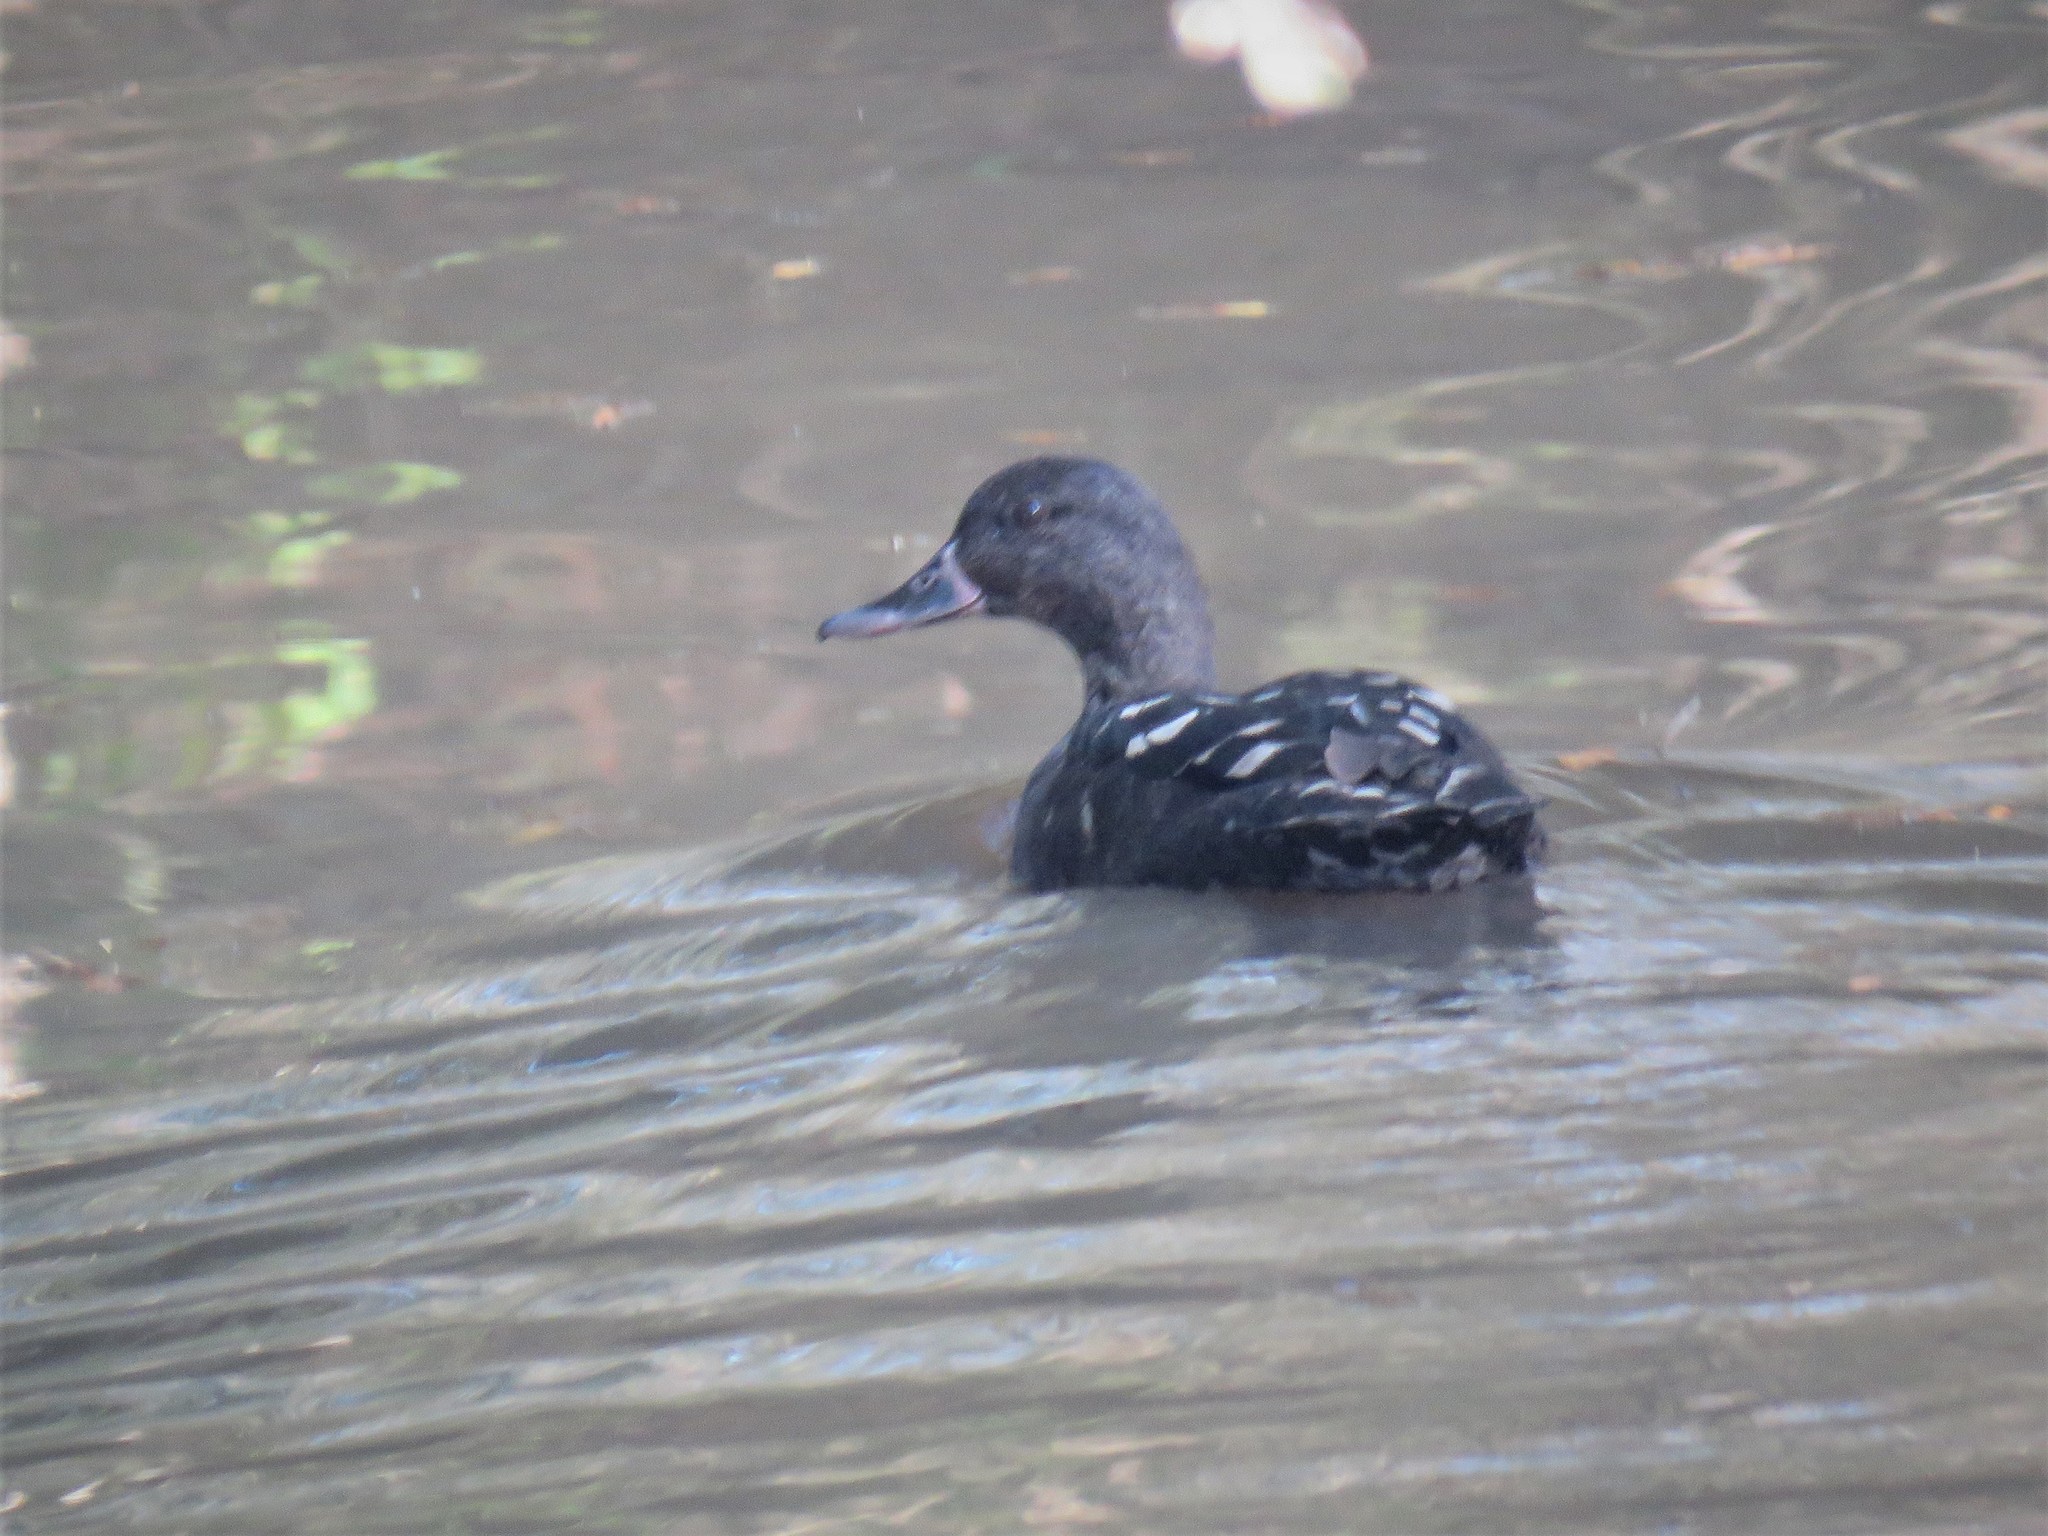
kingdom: Animalia
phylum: Chordata
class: Aves
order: Anseriformes
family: Anatidae
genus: Anas
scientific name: Anas sparsa
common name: African black duck
